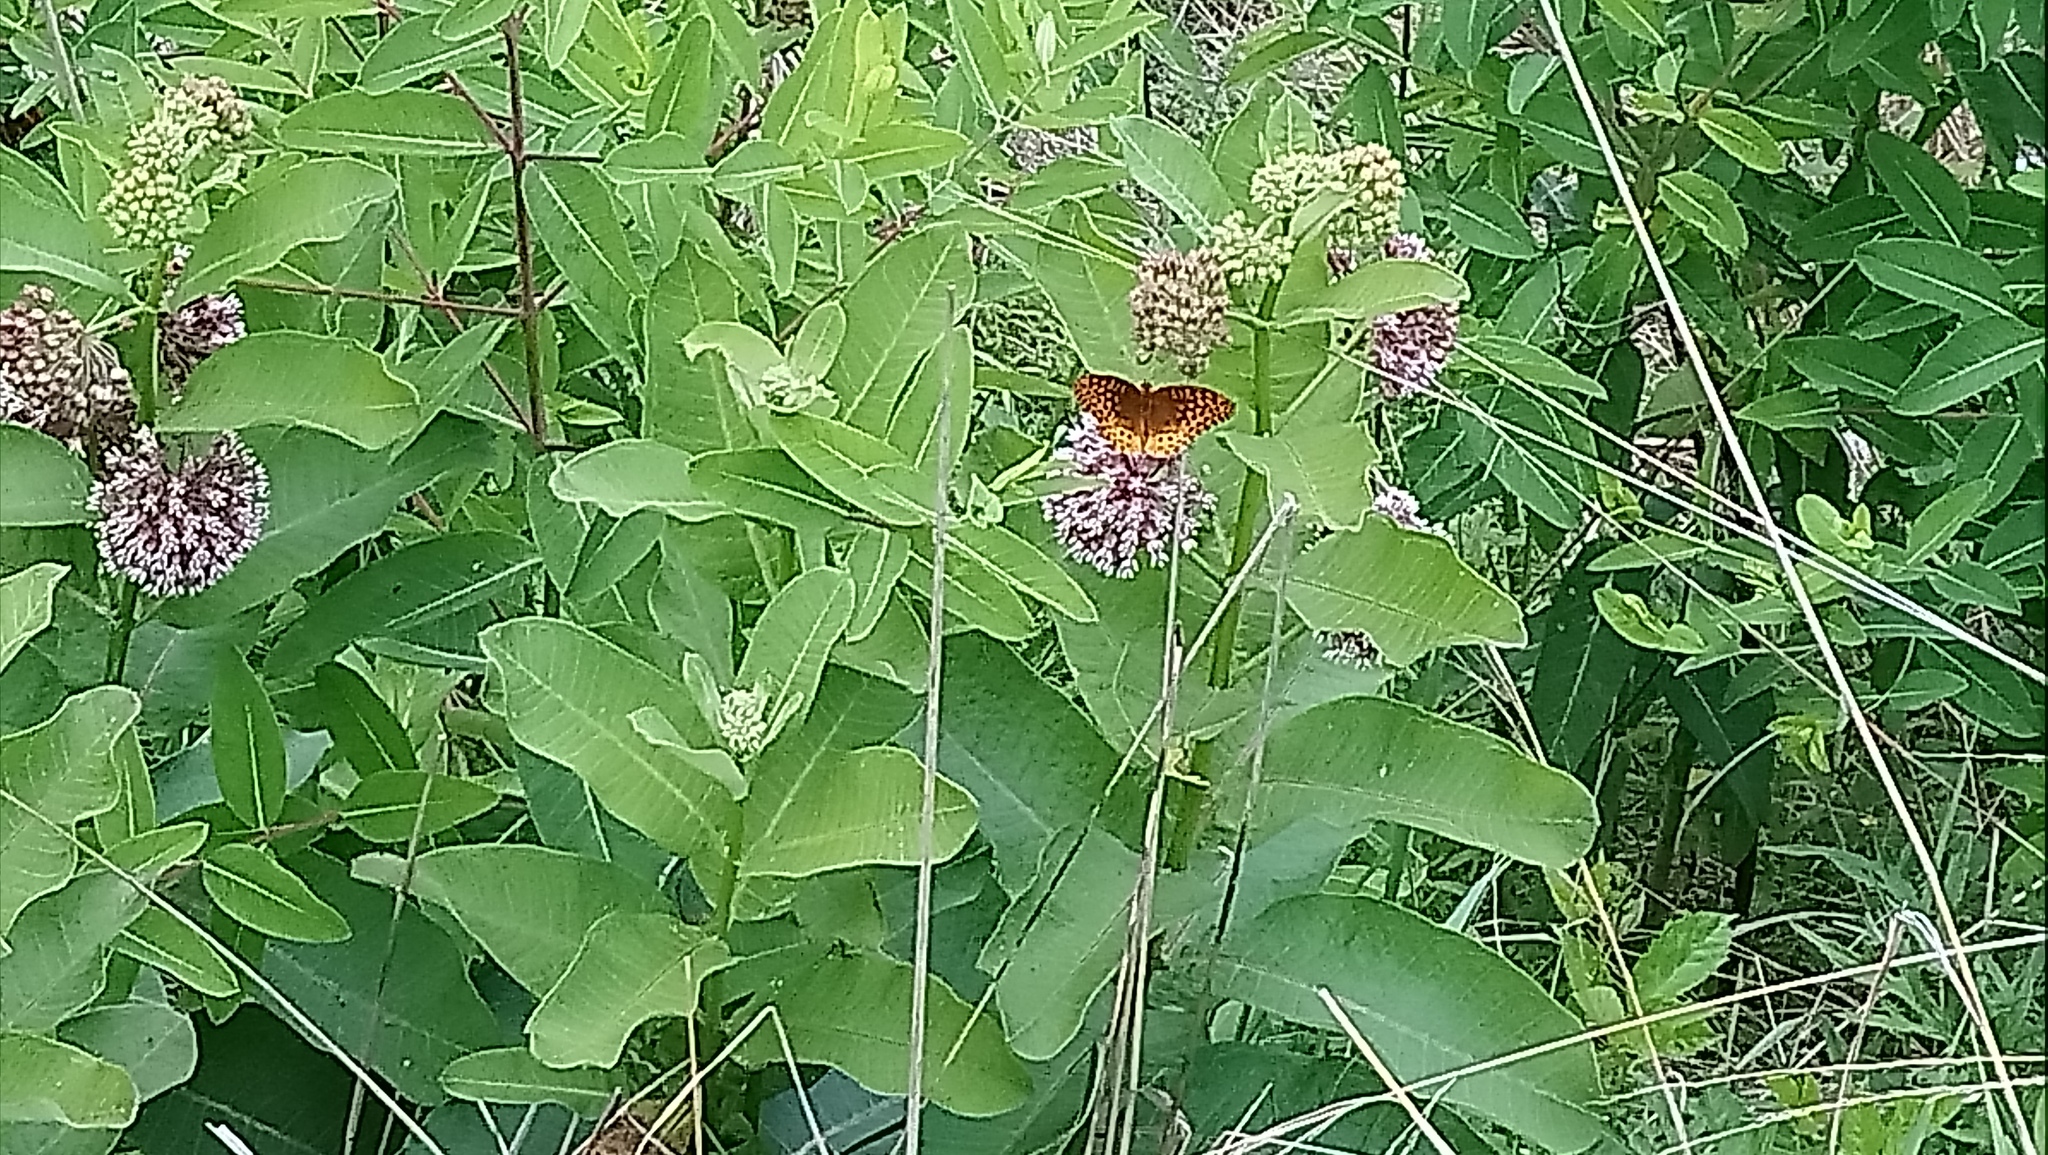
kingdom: Animalia
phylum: Arthropoda
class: Insecta
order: Lepidoptera
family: Nymphalidae
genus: Speyeria
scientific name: Speyeria cybele
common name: Great spangled fritillary
